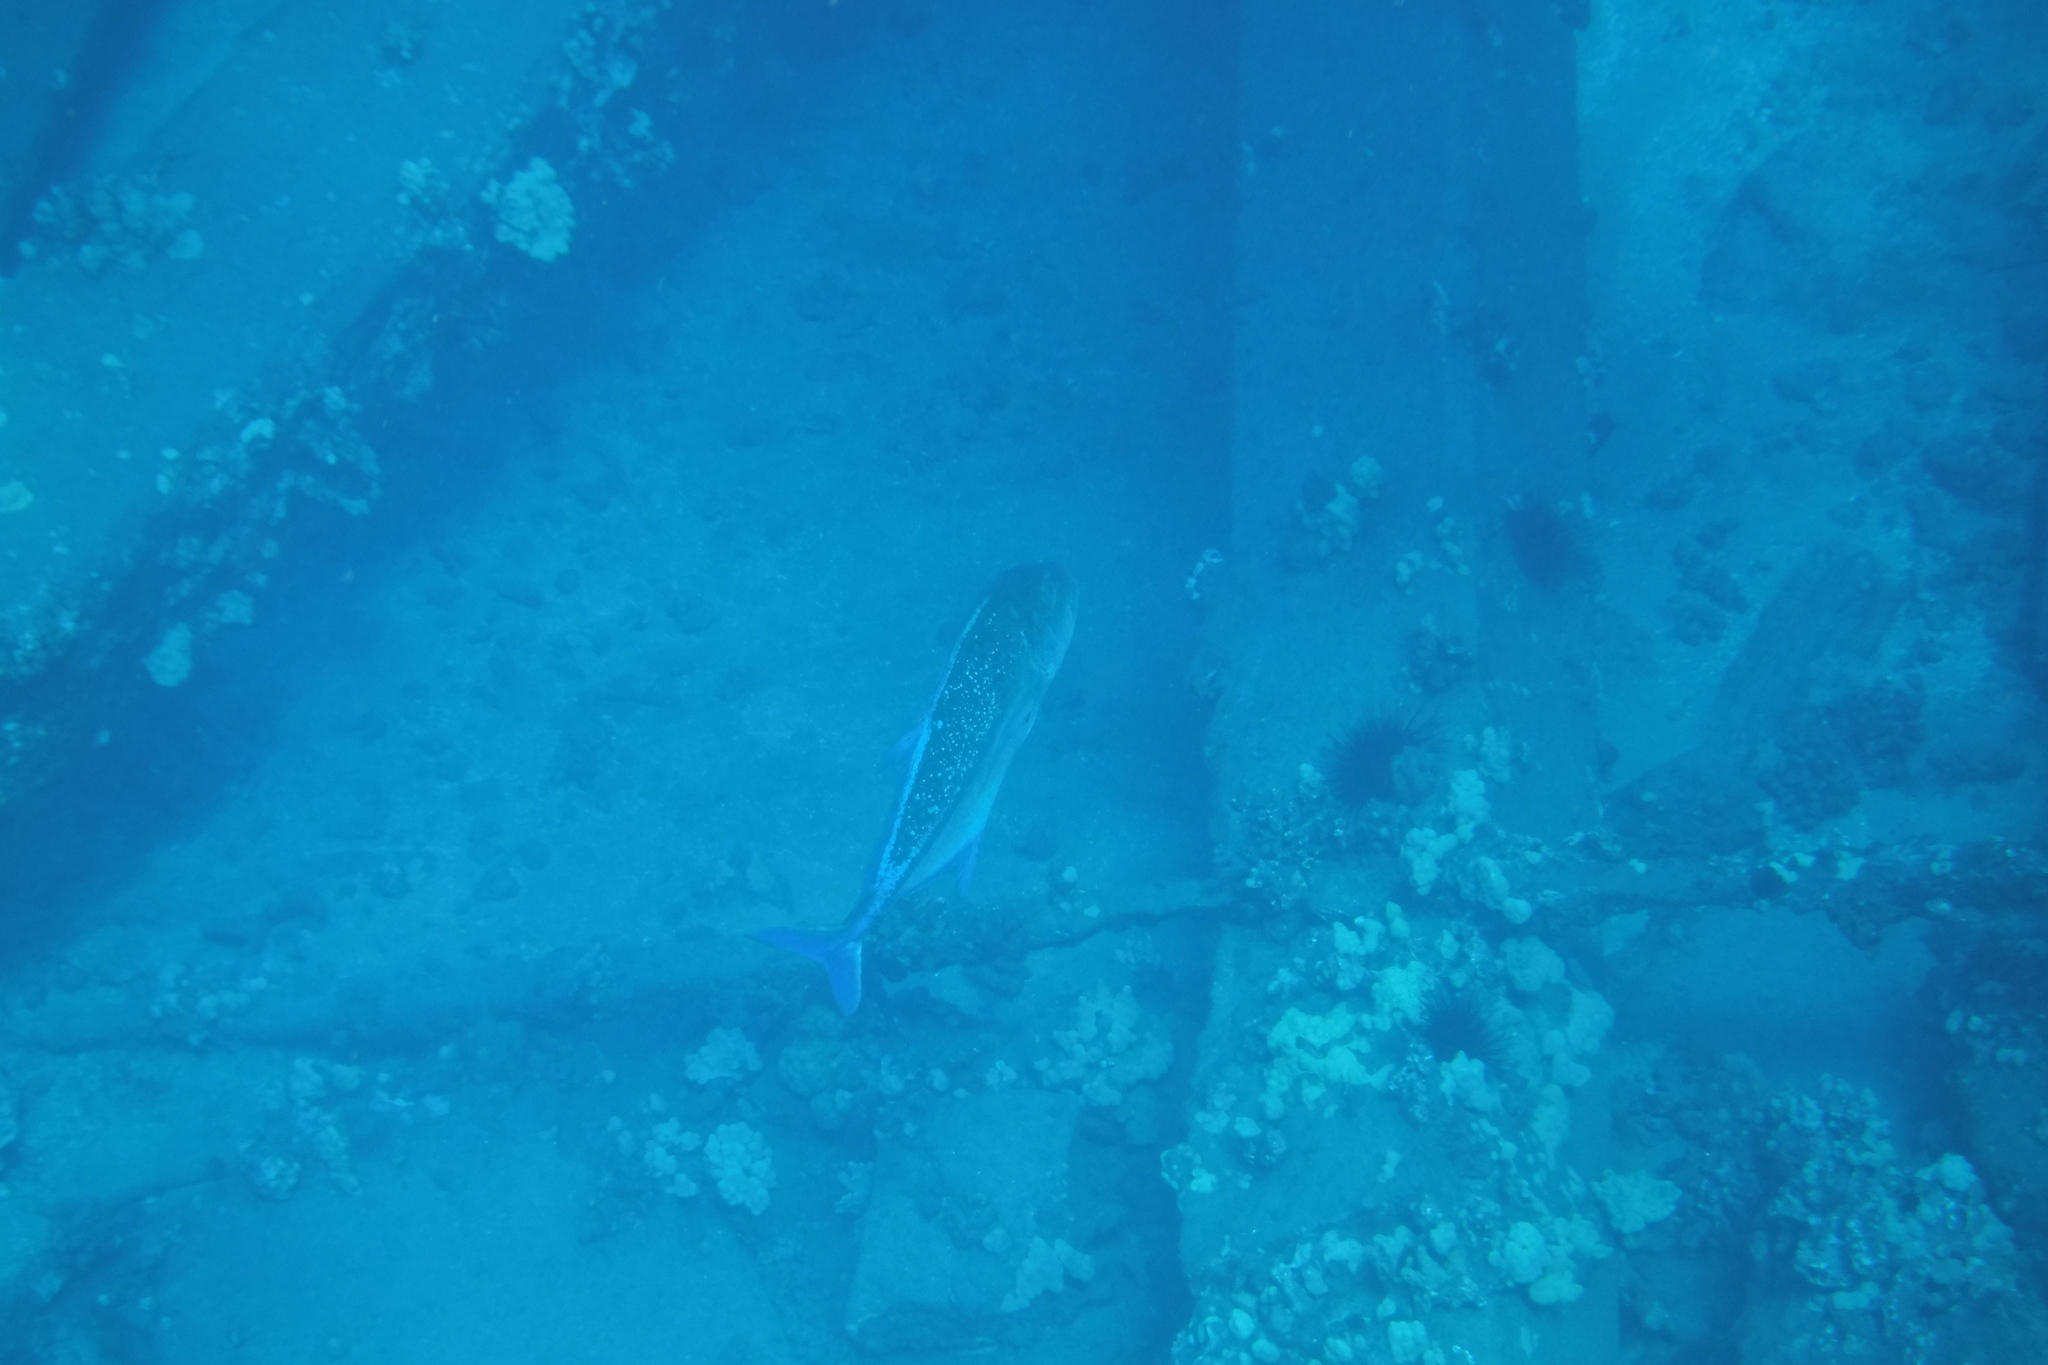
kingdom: Animalia
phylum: Chordata
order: Perciformes
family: Carangidae
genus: Caranx
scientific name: Caranx melampygus
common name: Bluefin trevally
